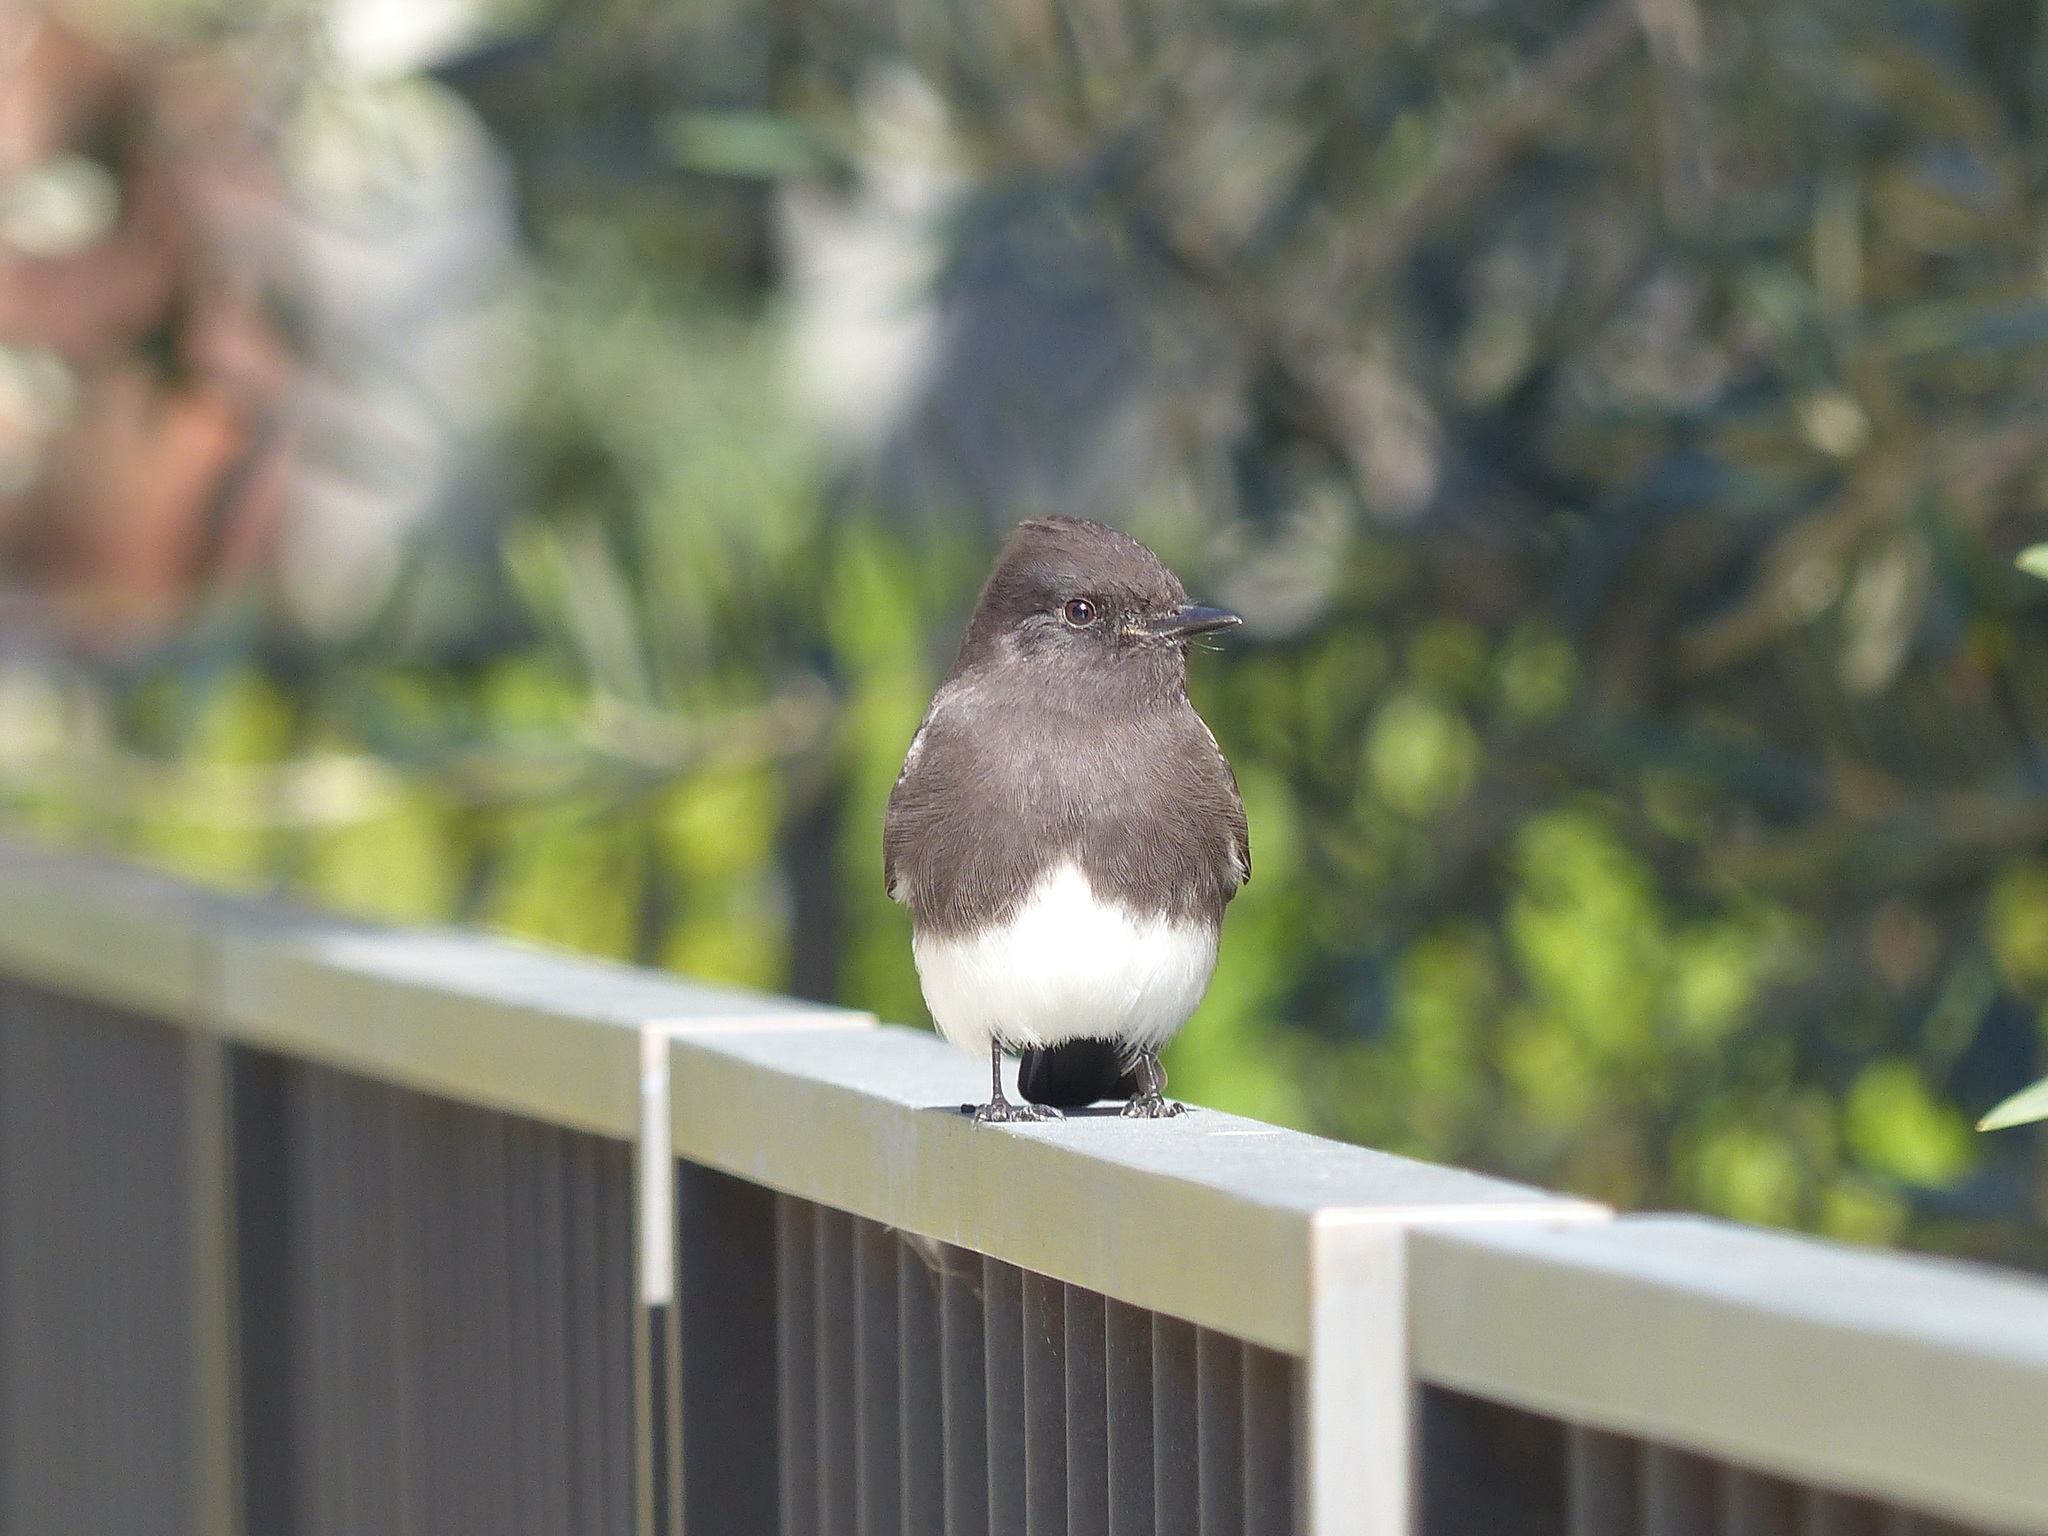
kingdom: Animalia
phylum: Chordata
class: Aves
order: Passeriformes
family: Tyrannidae
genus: Sayornis
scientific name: Sayornis nigricans
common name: Black phoebe
